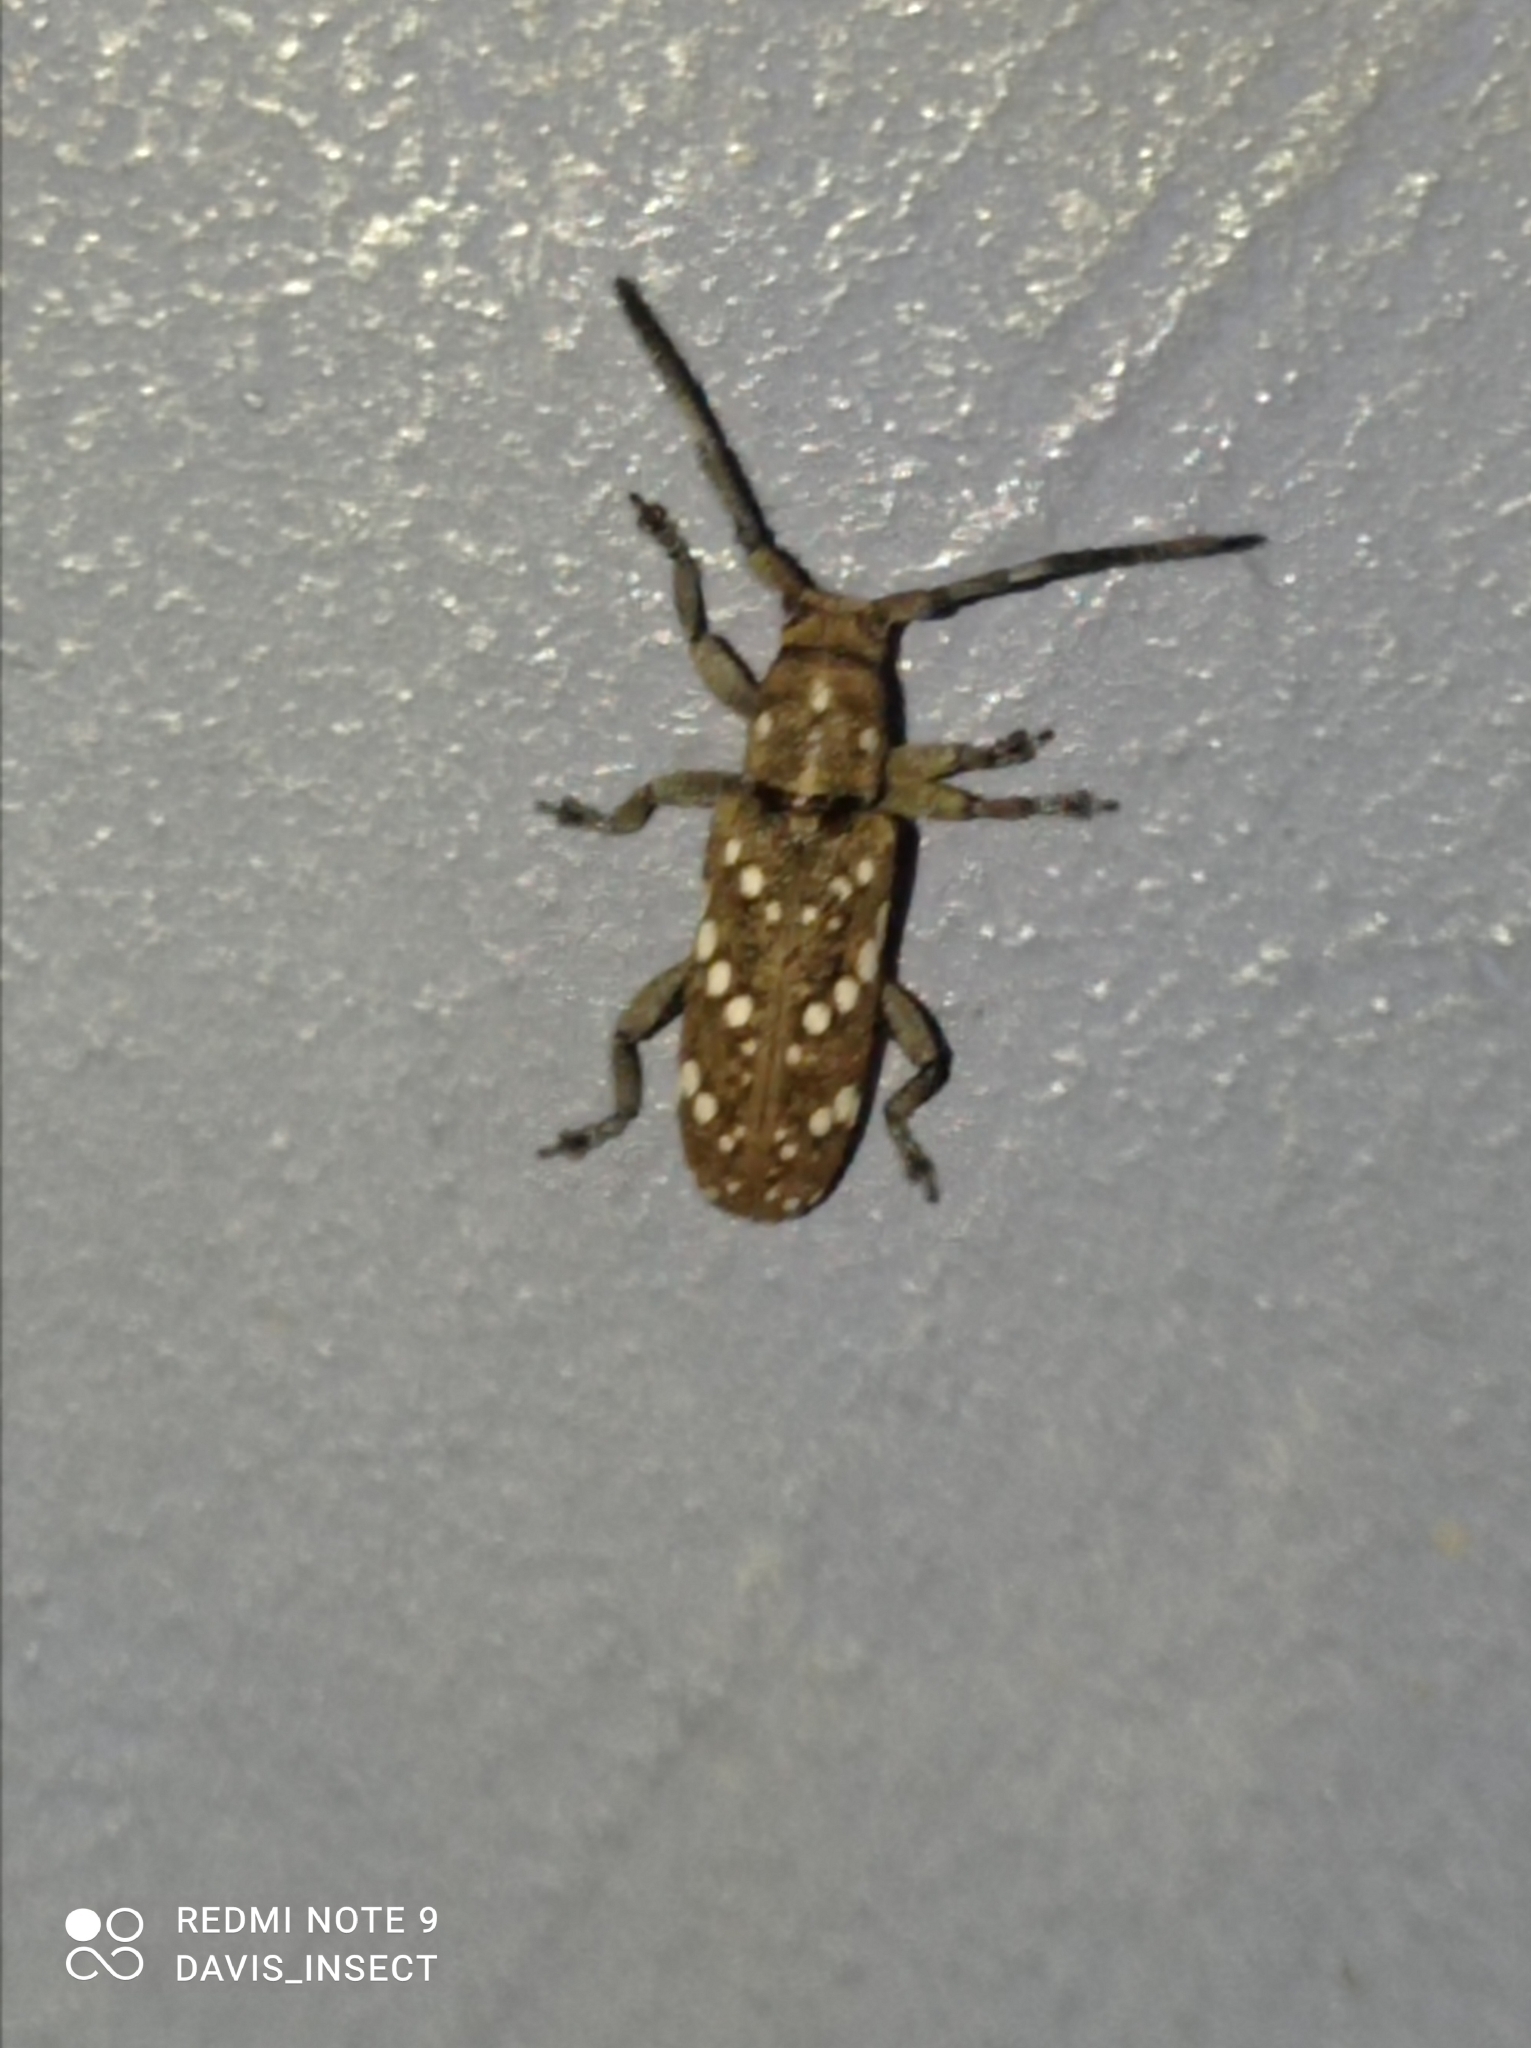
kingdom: Animalia
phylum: Arthropoda
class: Insecta
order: Coleoptera
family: Cerambycidae
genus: Apomecyna
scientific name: Apomecyna histrio
